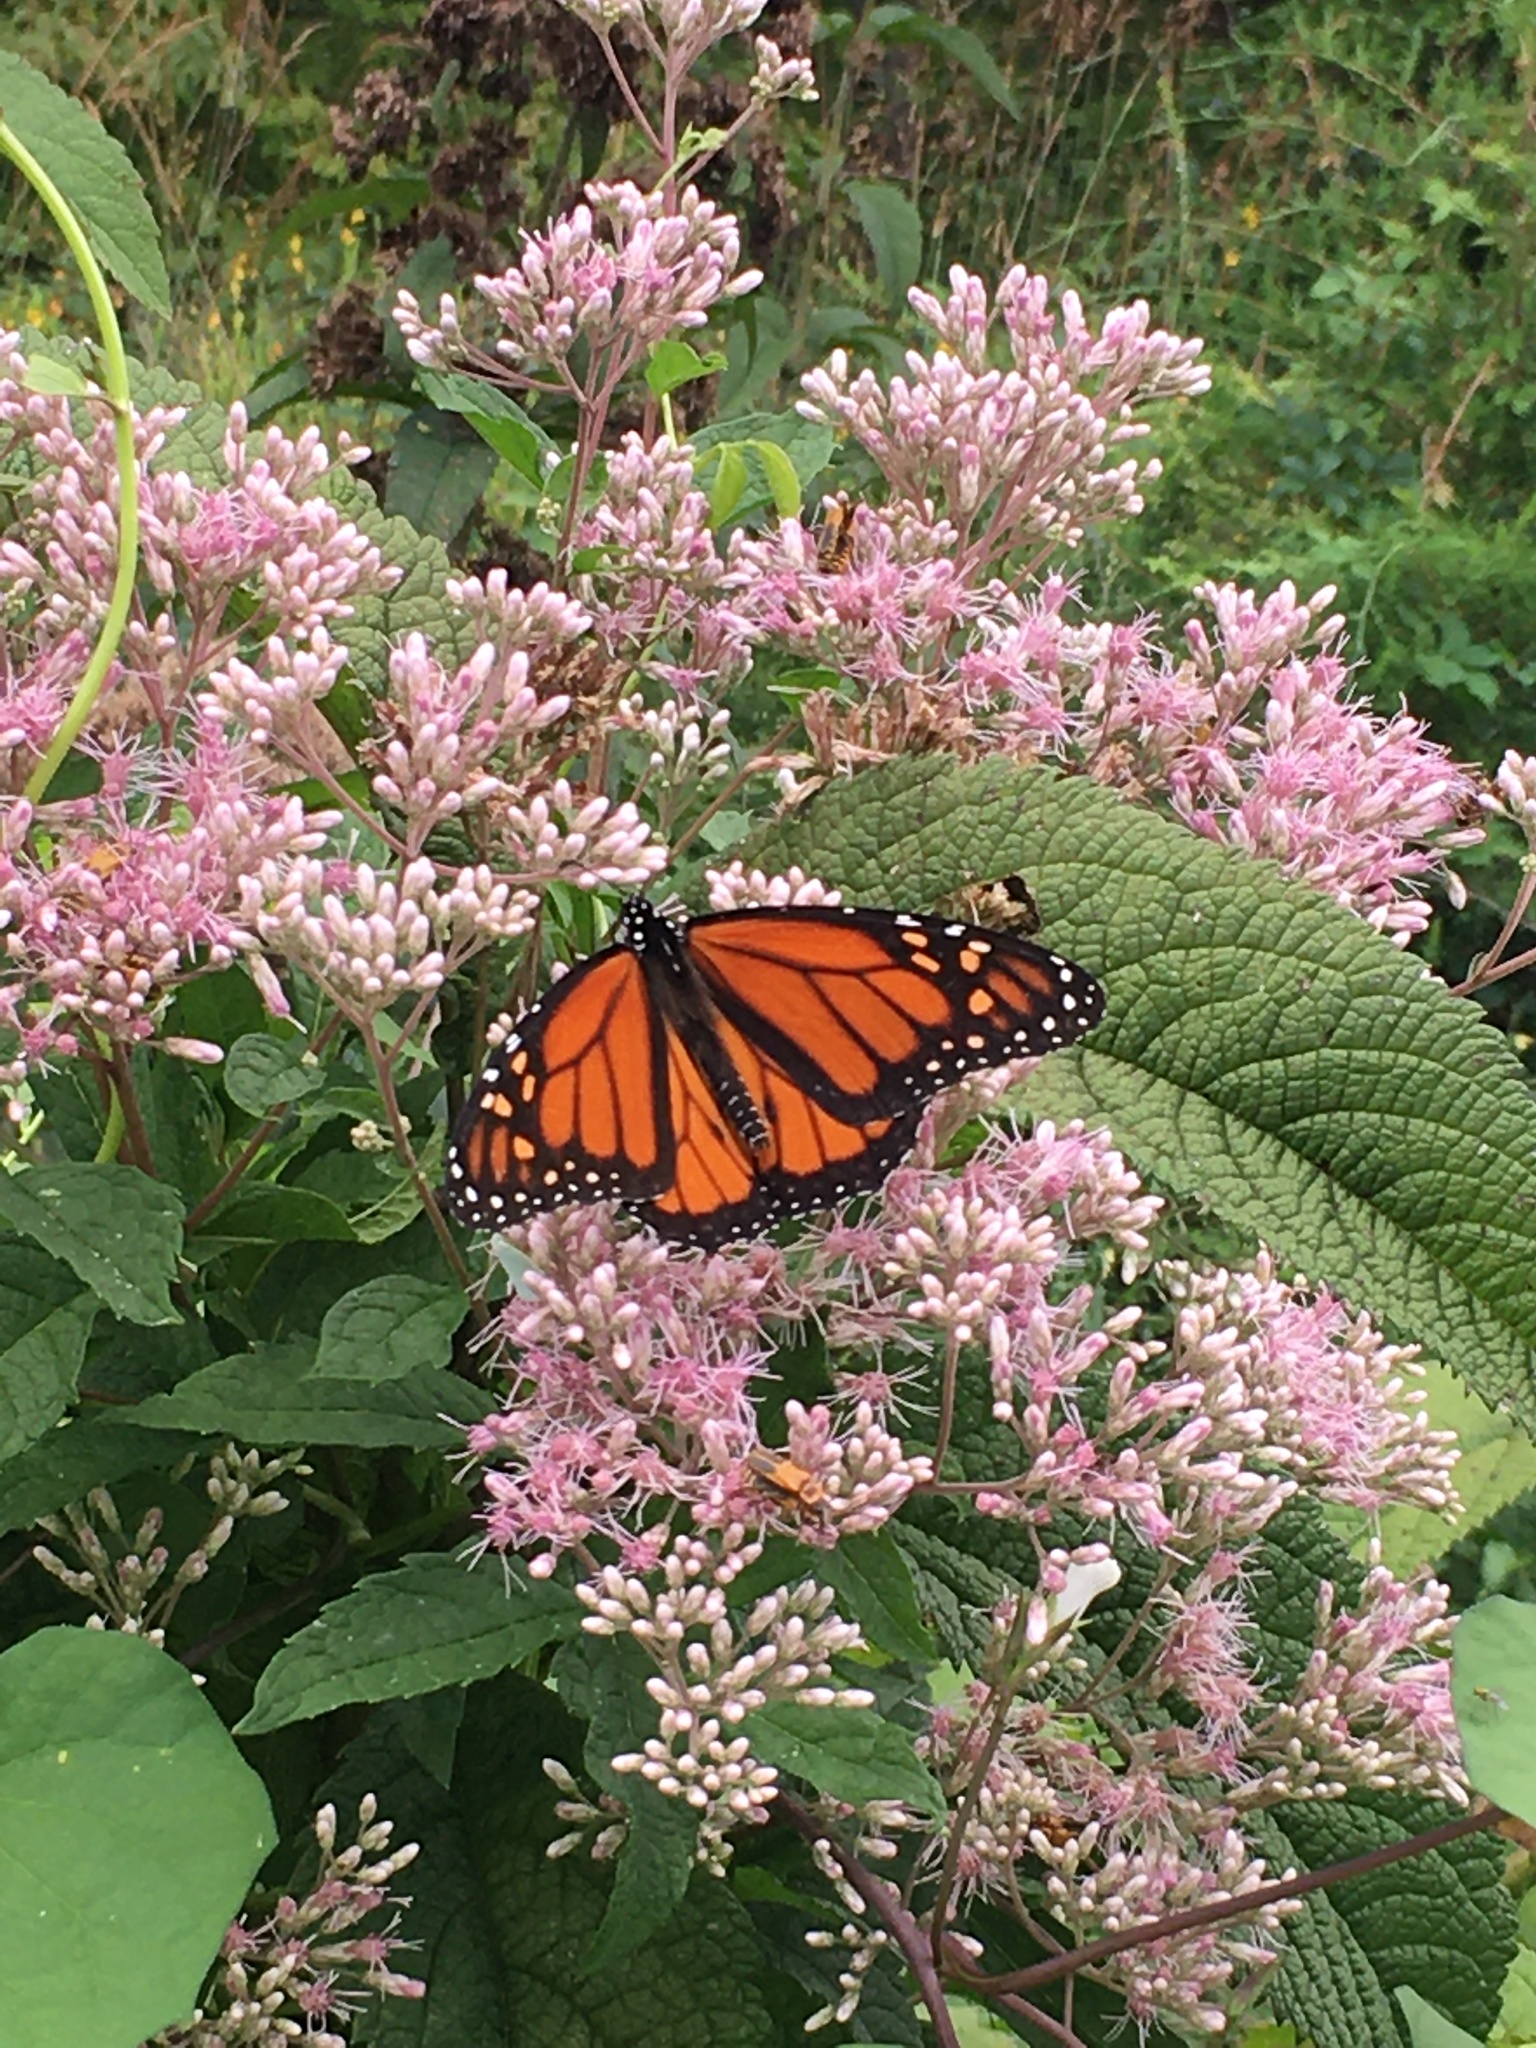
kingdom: Animalia
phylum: Arthropoda
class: Insecta
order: Lepidoptera
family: Nymphalidae
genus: Danaus
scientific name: Danaus plexippus
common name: Monarch
